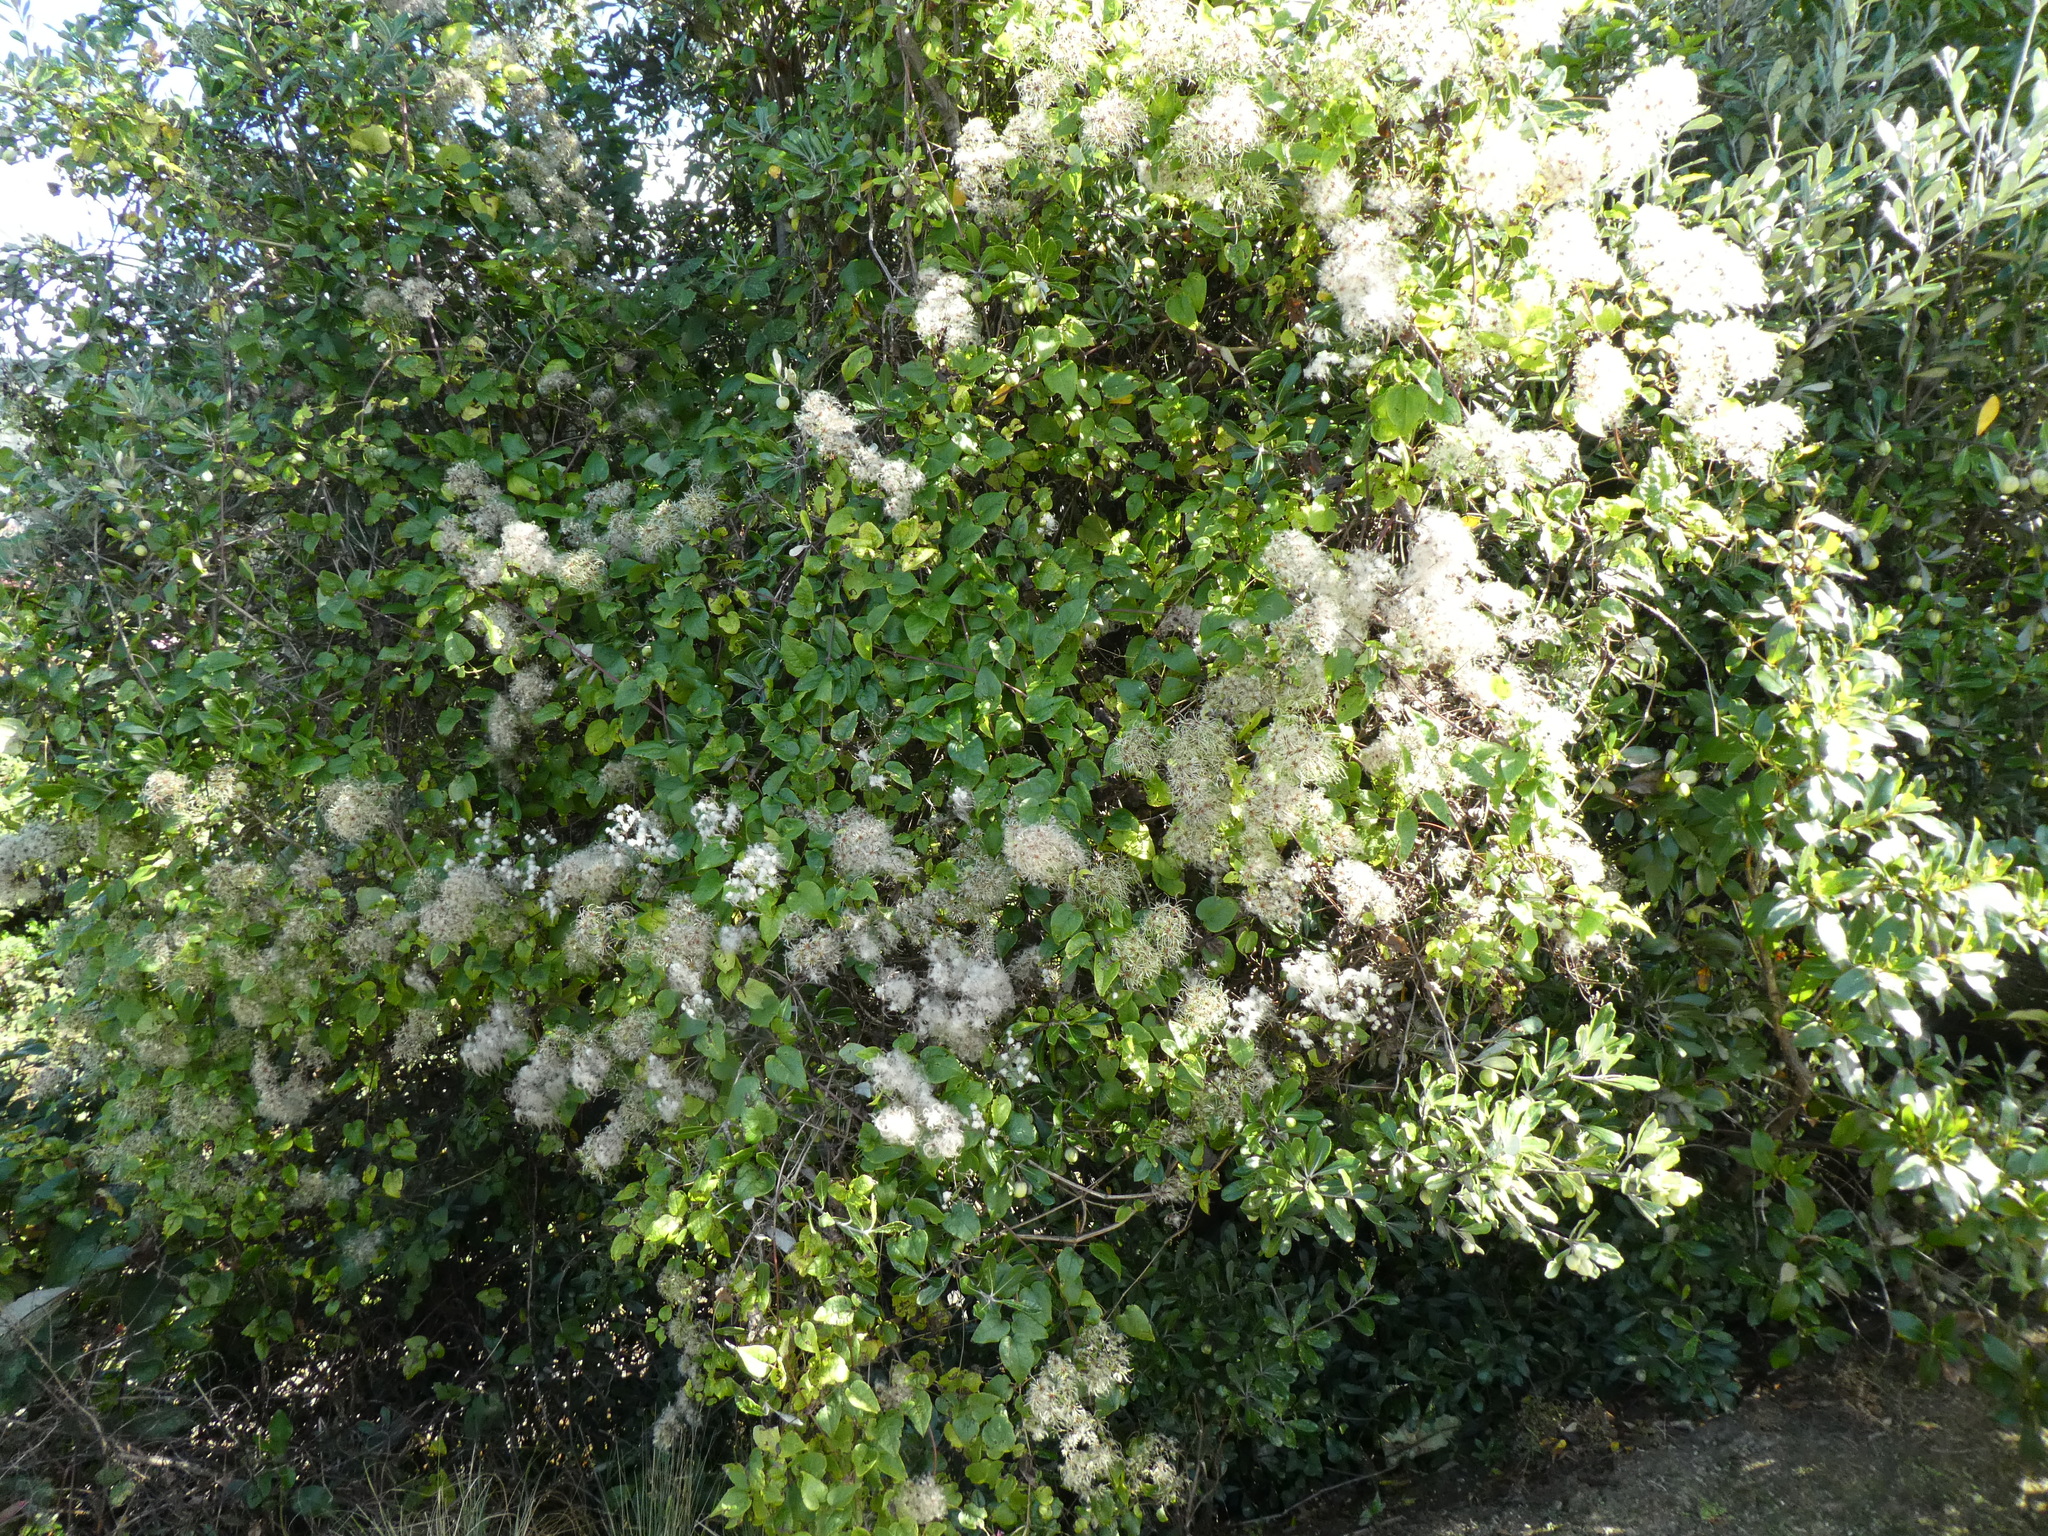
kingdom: Plantae
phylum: Tracheophyta
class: Magnoliopsida
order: Ranunculales
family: Ranunculaceae
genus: Clematis
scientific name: Clematis vitalba
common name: Evergreen clematis
